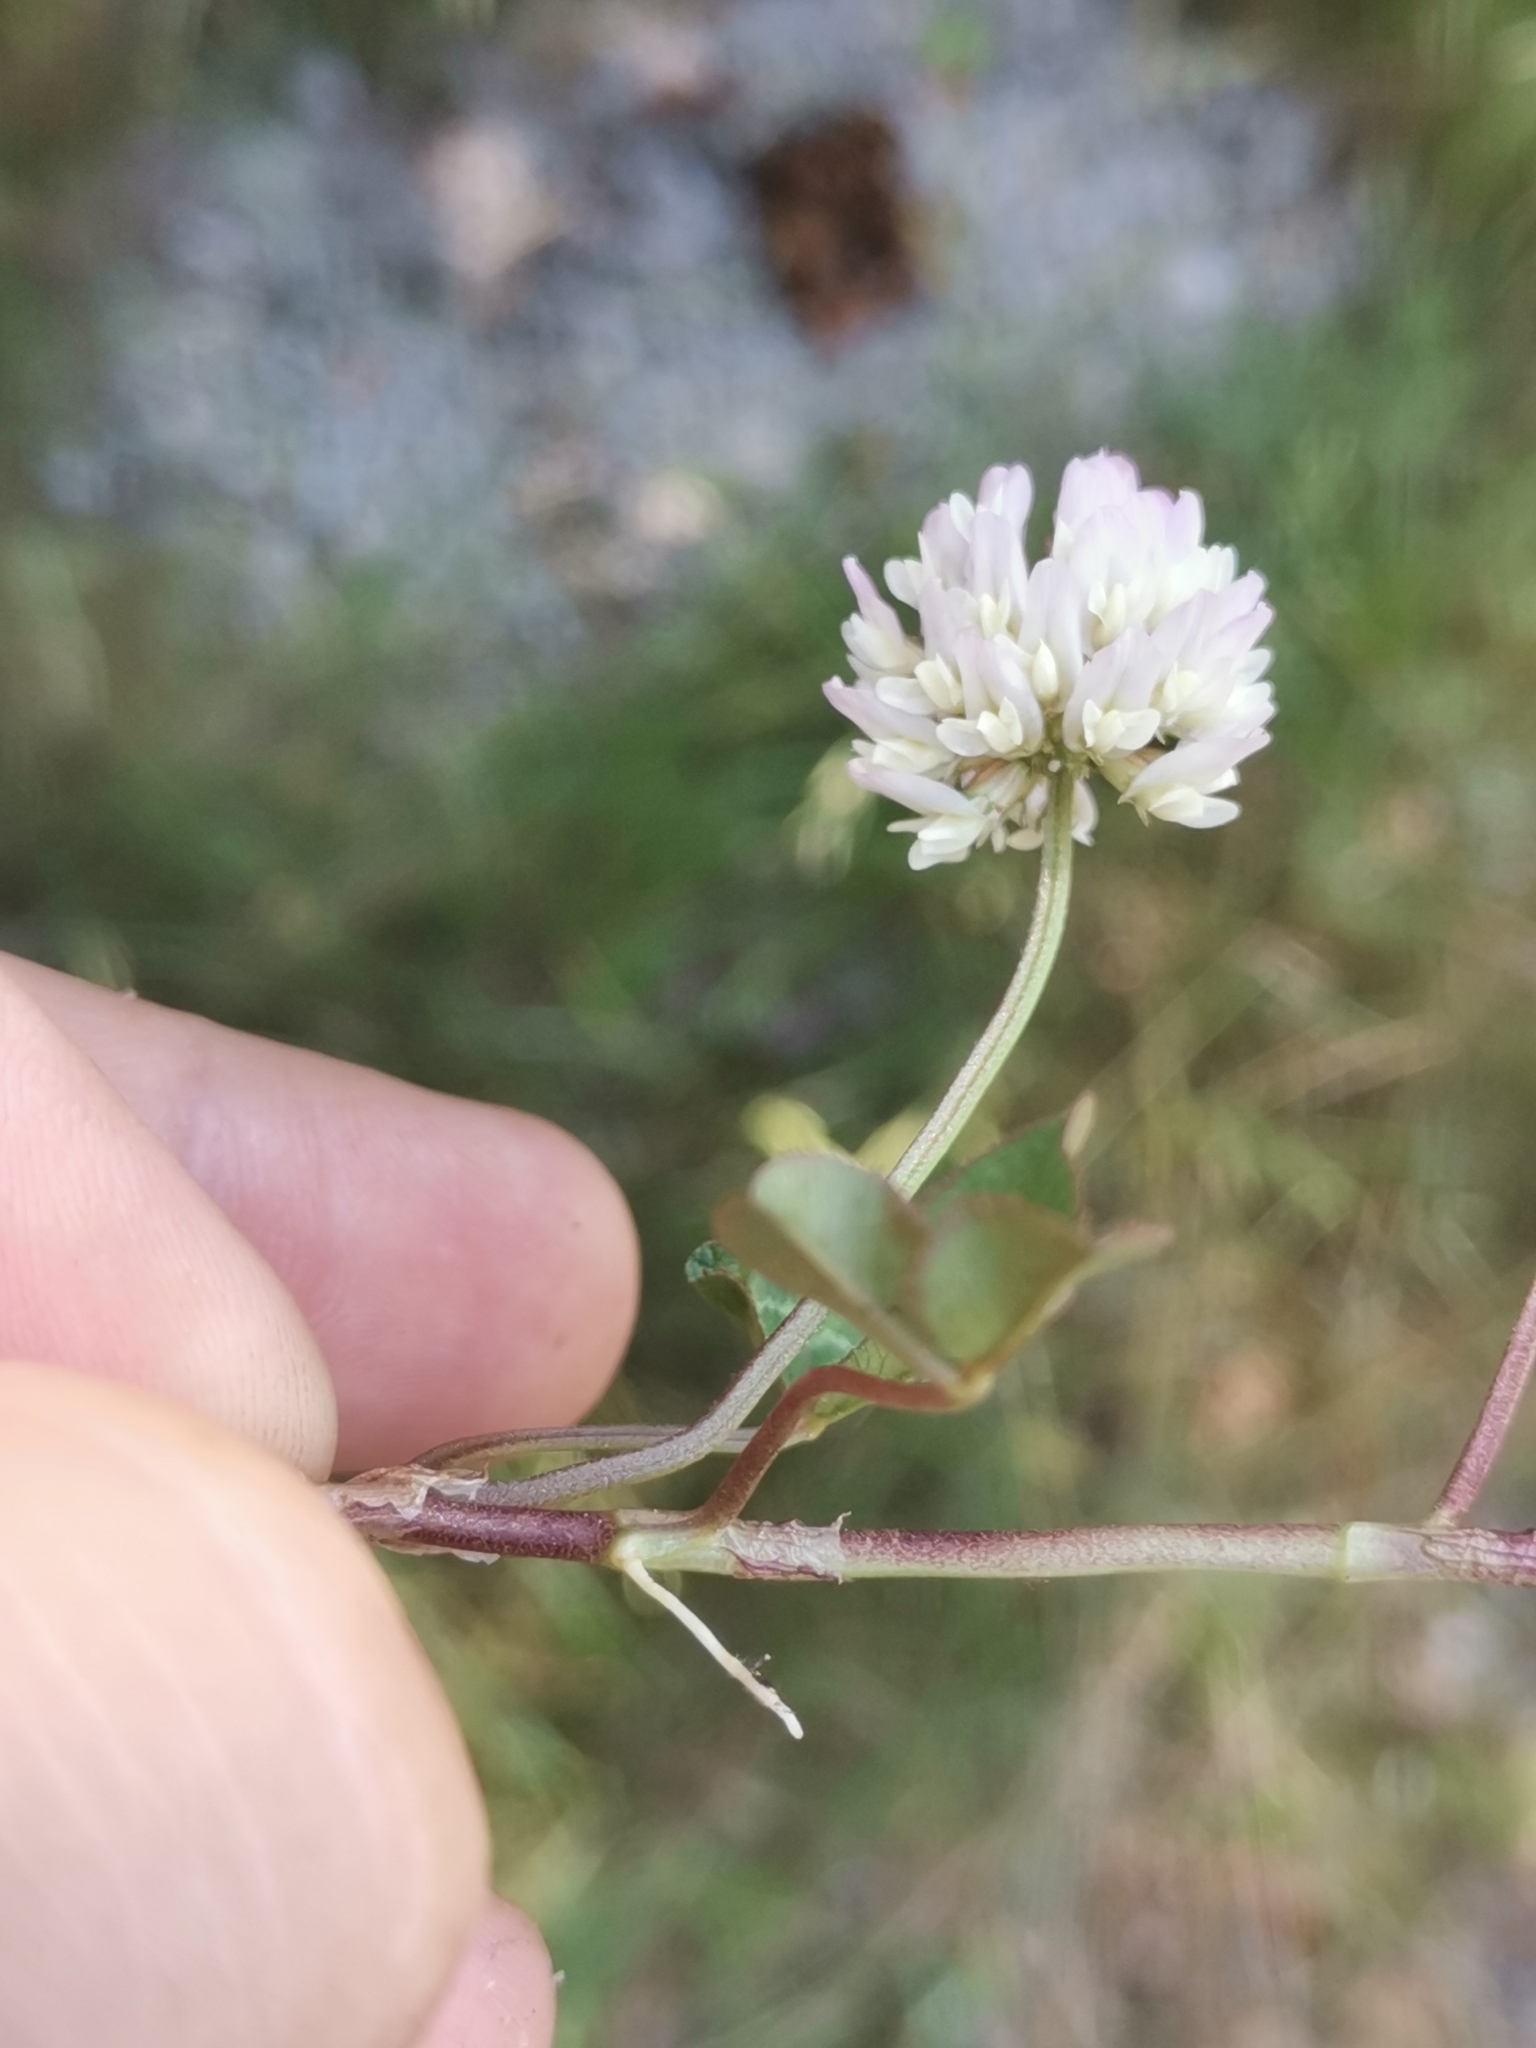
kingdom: Plantae
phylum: Tracheophyta
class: Magnoliopsida
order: Fabales
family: Fabaceae
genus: Trifolium
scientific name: Trifolium repens
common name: White clover
